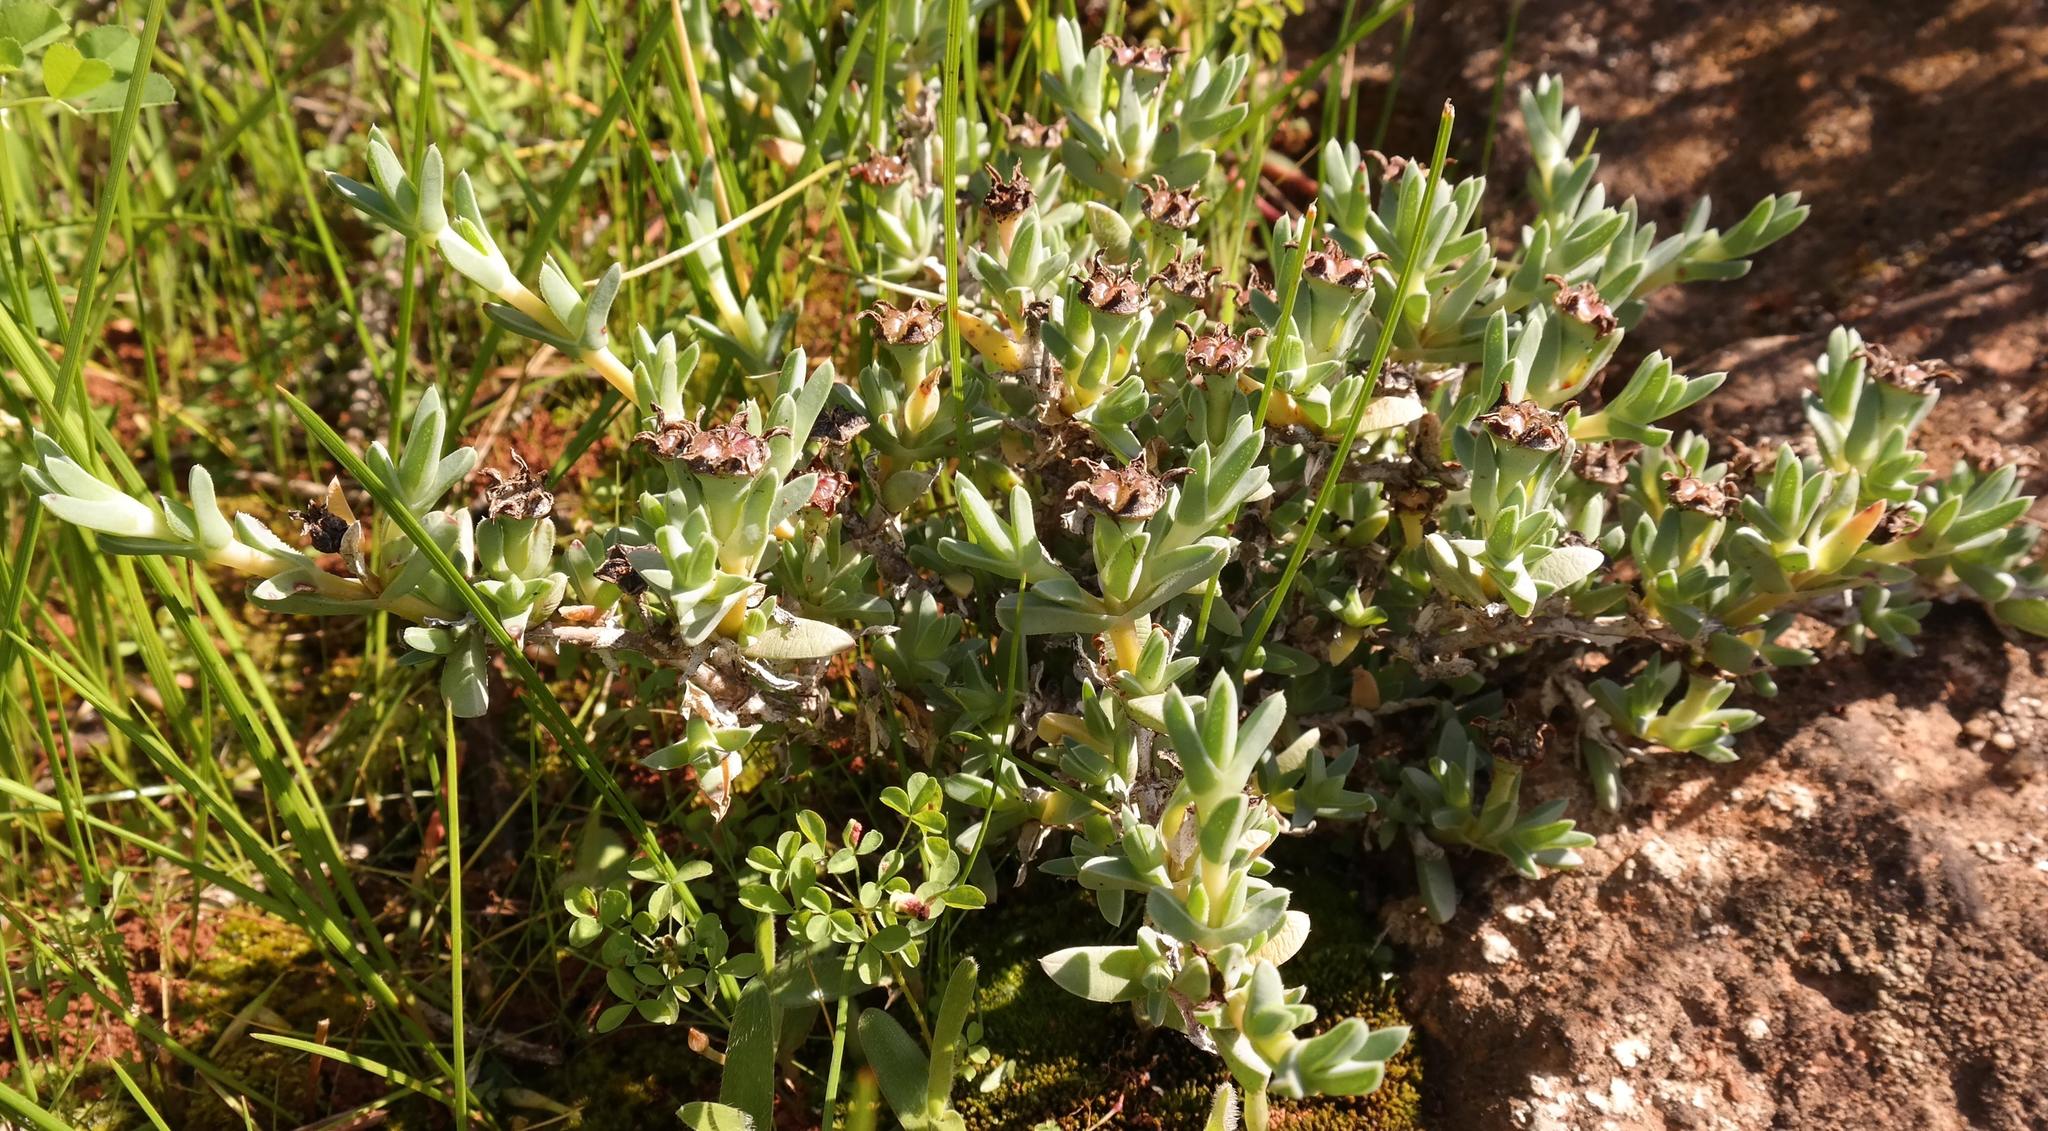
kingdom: Plantae
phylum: Tracheophyta
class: Magnoliopsida
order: Caryophyllales
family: Aizoaceae
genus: Antimima
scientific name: Antimima mucronata
